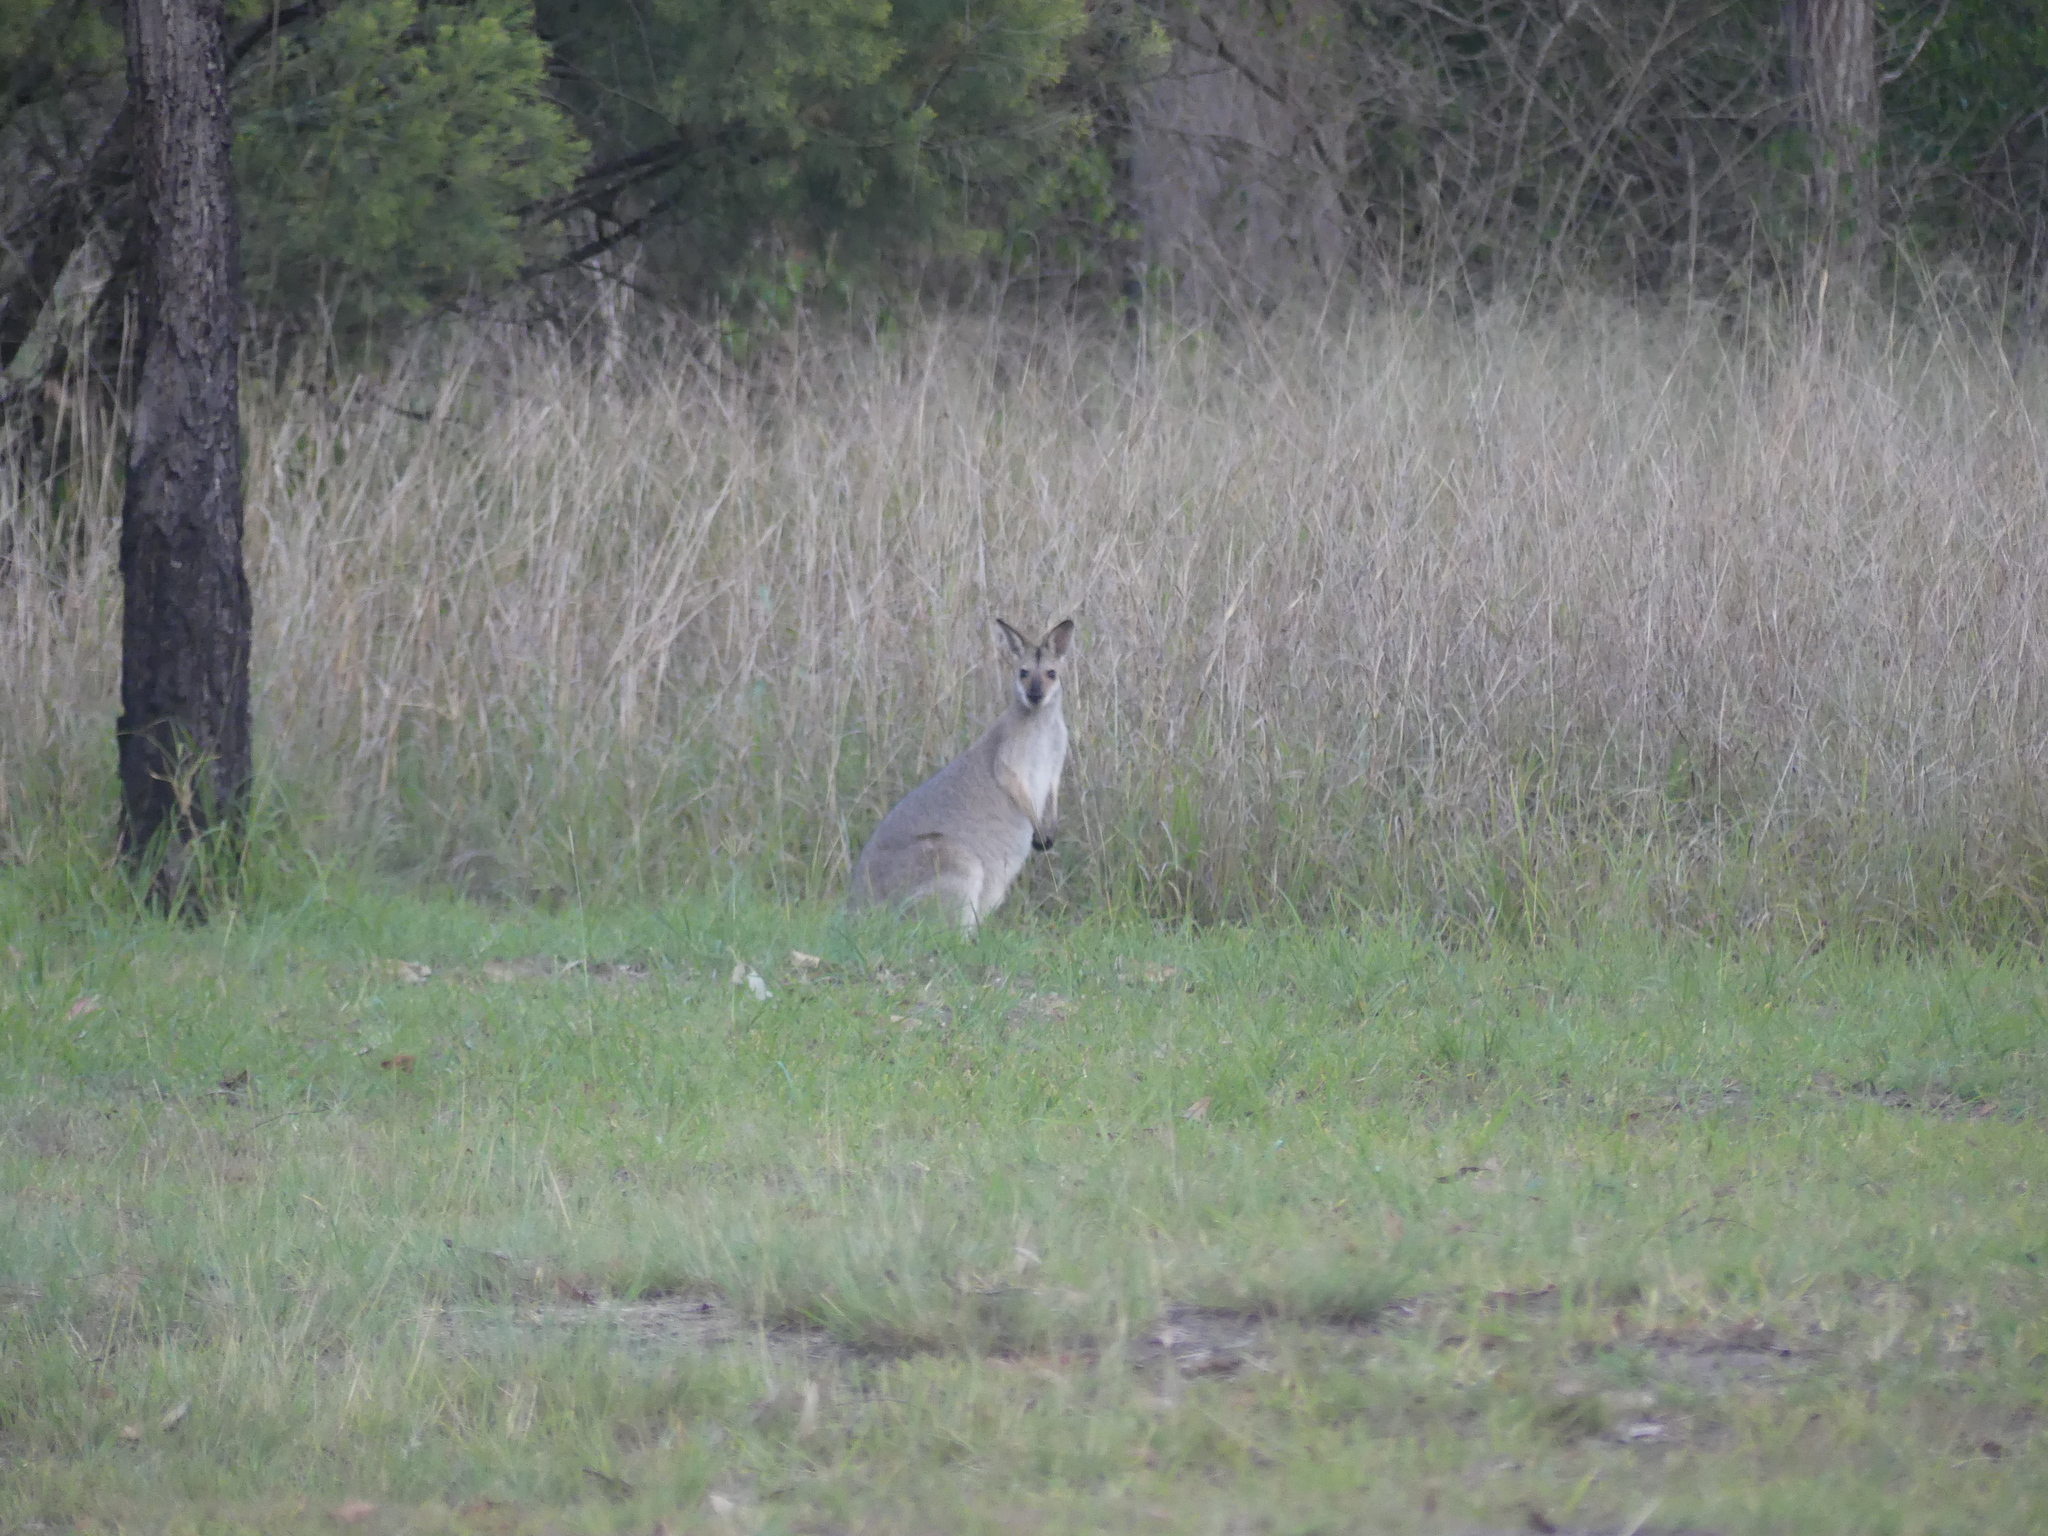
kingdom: Animalia
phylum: Chordata
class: Mammalia
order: Diprotodontia
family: Macropodidae
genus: Notamacropus
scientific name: Notamacropus rufogriseus
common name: Red-necked wallaby
